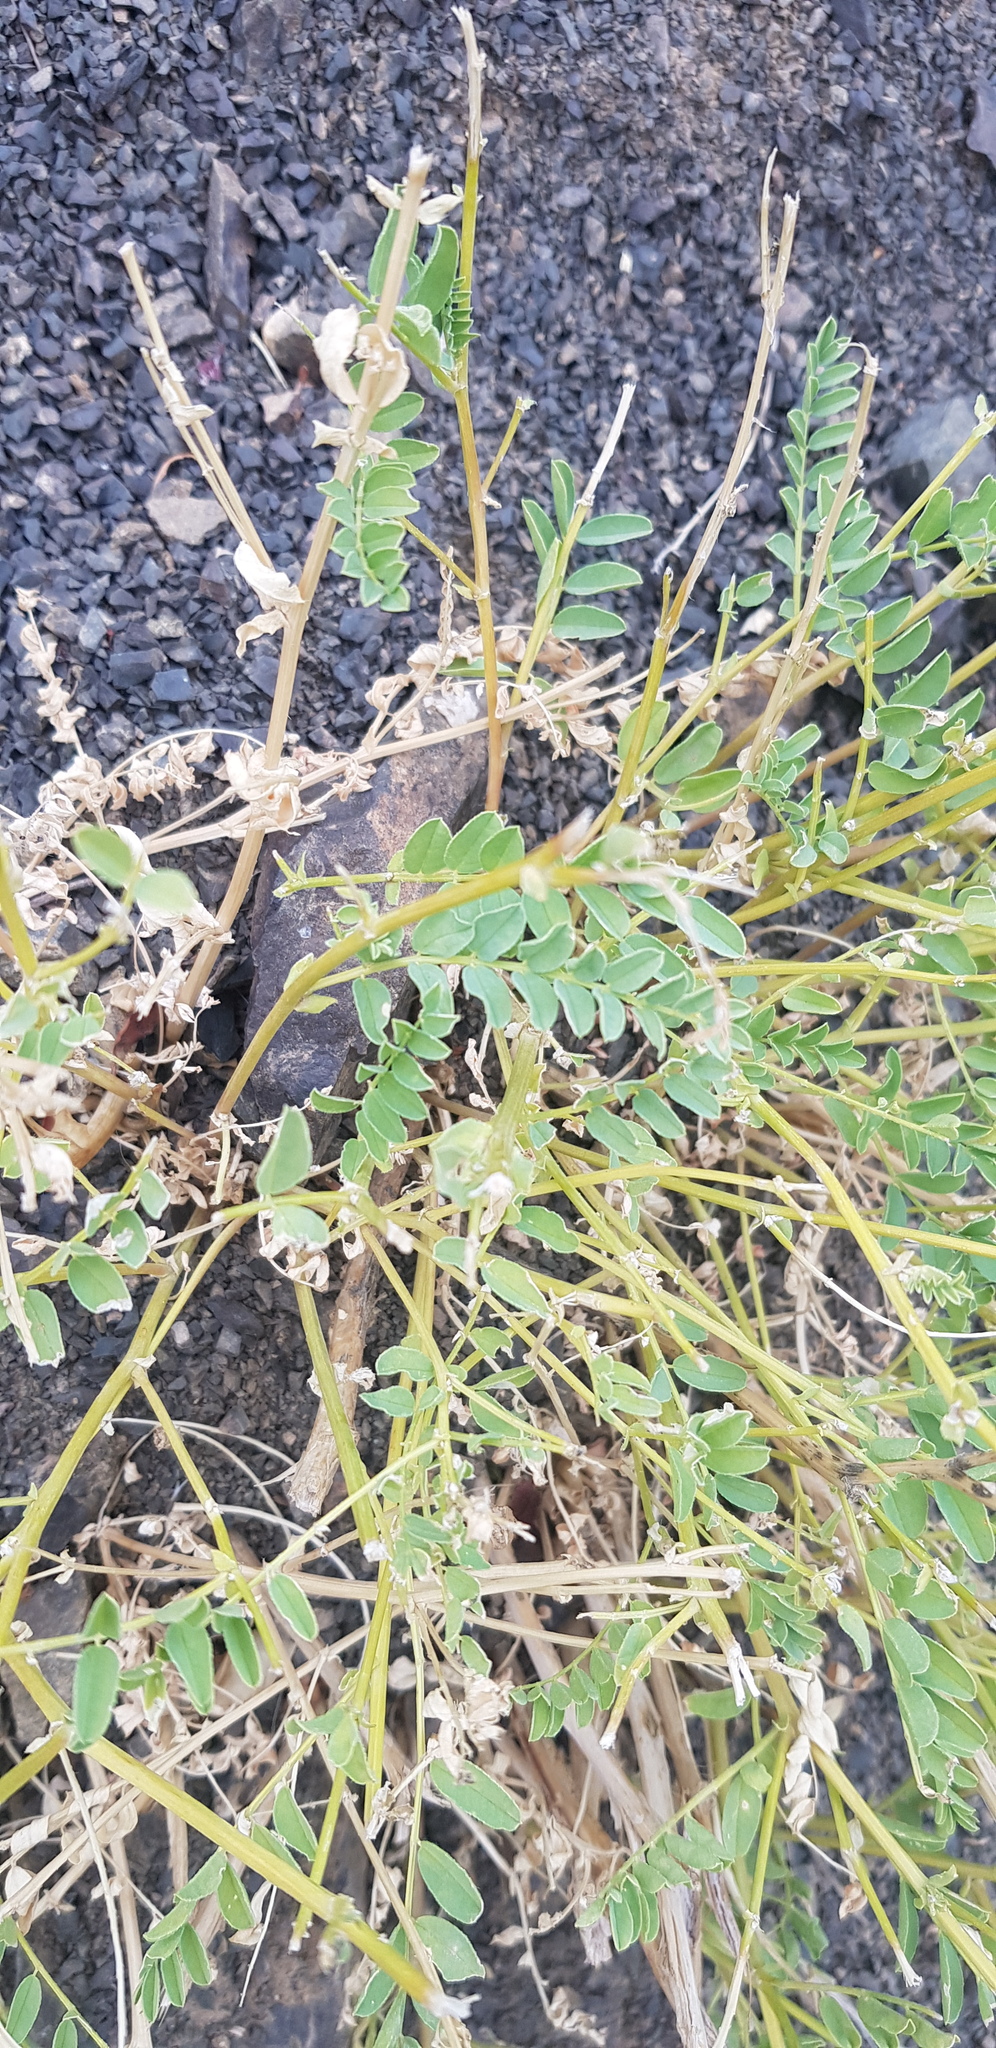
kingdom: Plantae
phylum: Tracheophyta
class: Magnoliopsida
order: Fabales
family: Fabaceae
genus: Astragalus
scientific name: Astragalus chinensis
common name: Chinese milkvetch
